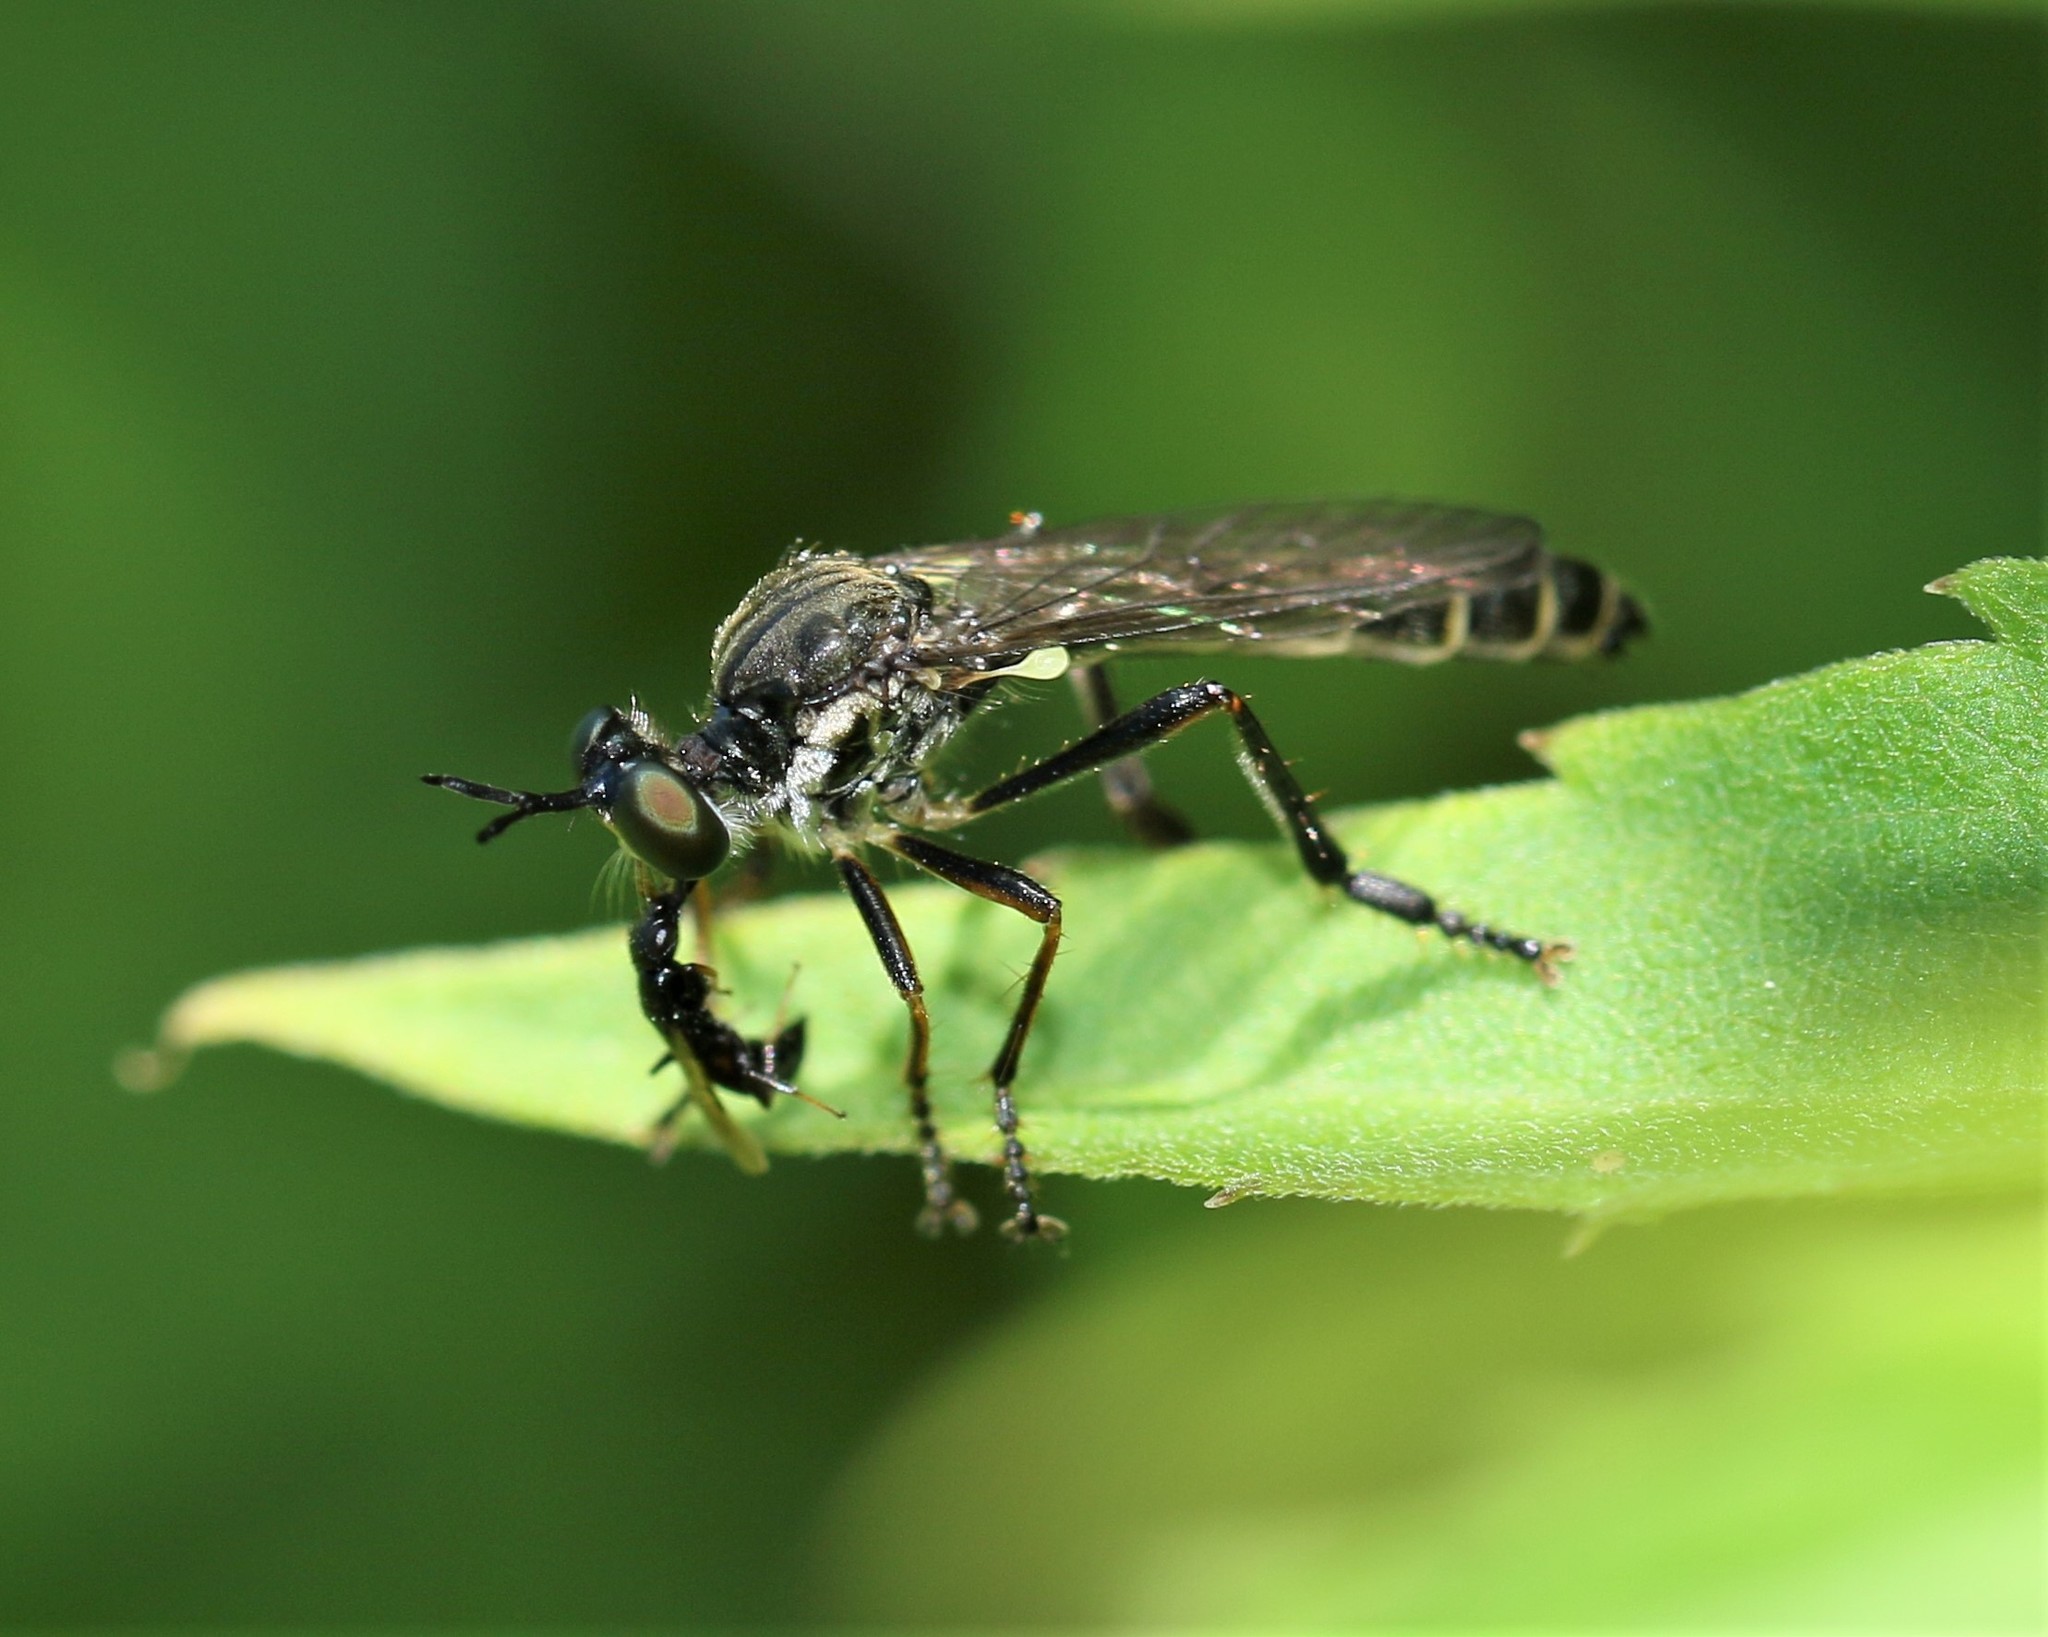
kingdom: Animalia
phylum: Arthropoda
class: Insecta
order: Diptera
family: Asilidae
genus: Dioctria
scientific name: Dioctria hyalipennis
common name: Stripe-legged robberfly
